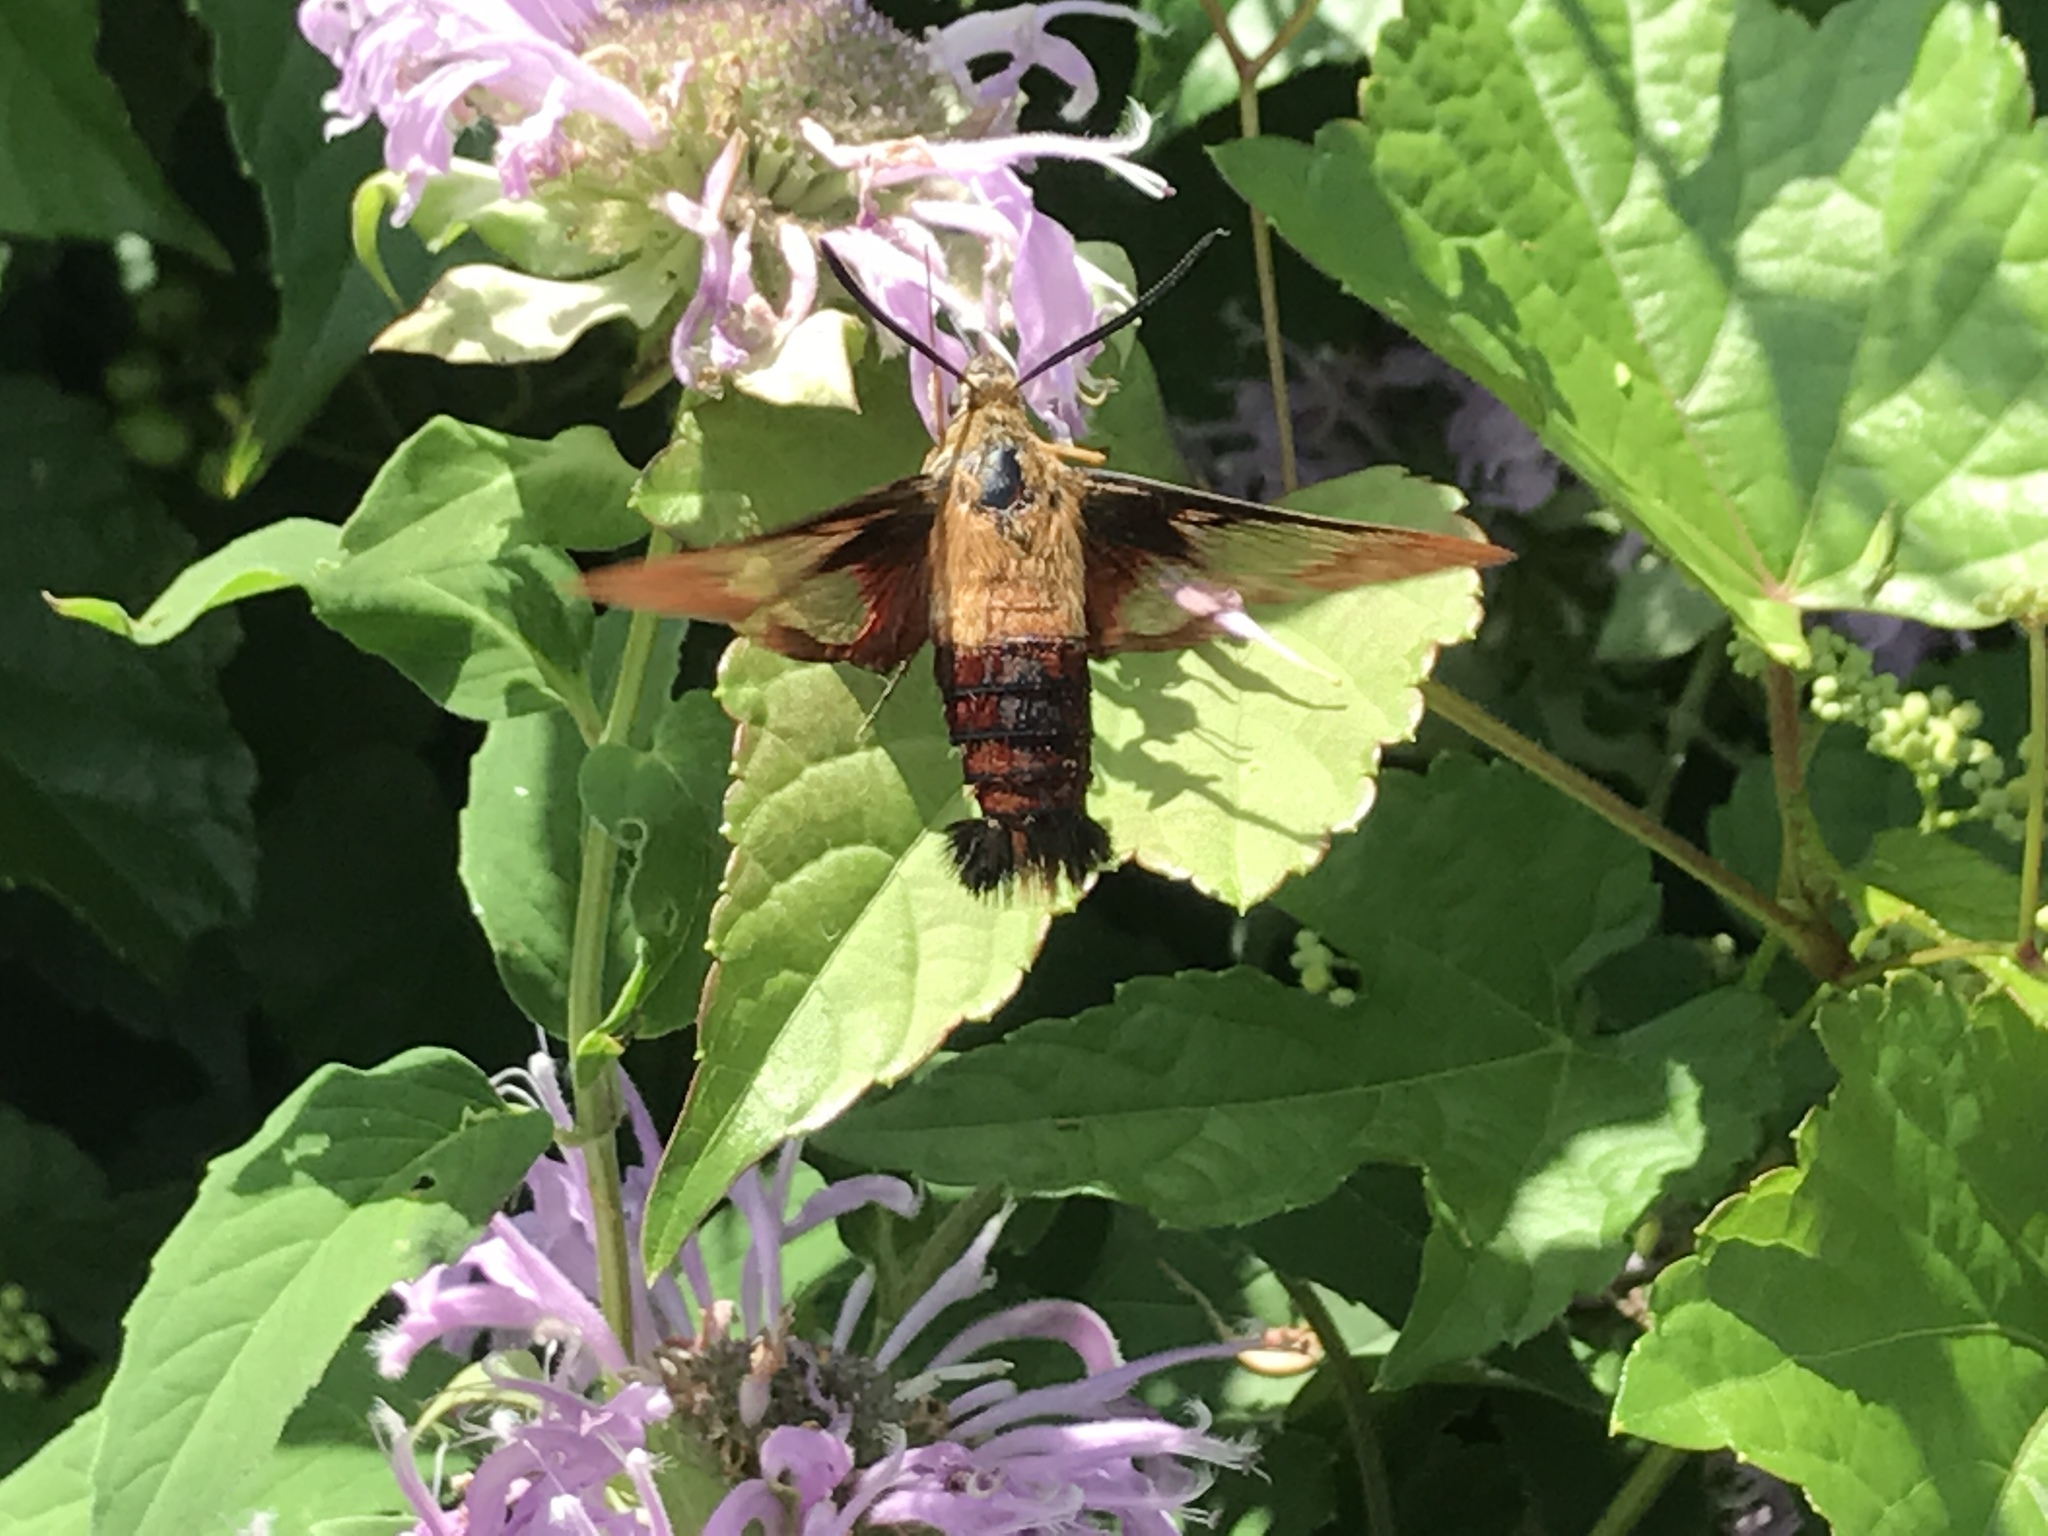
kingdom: Animalia
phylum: Arthropoda
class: Insecta
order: Lepidoptera
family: Sphingidae
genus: Hemaris
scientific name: Hemaris thysbe
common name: Common clear-wing
